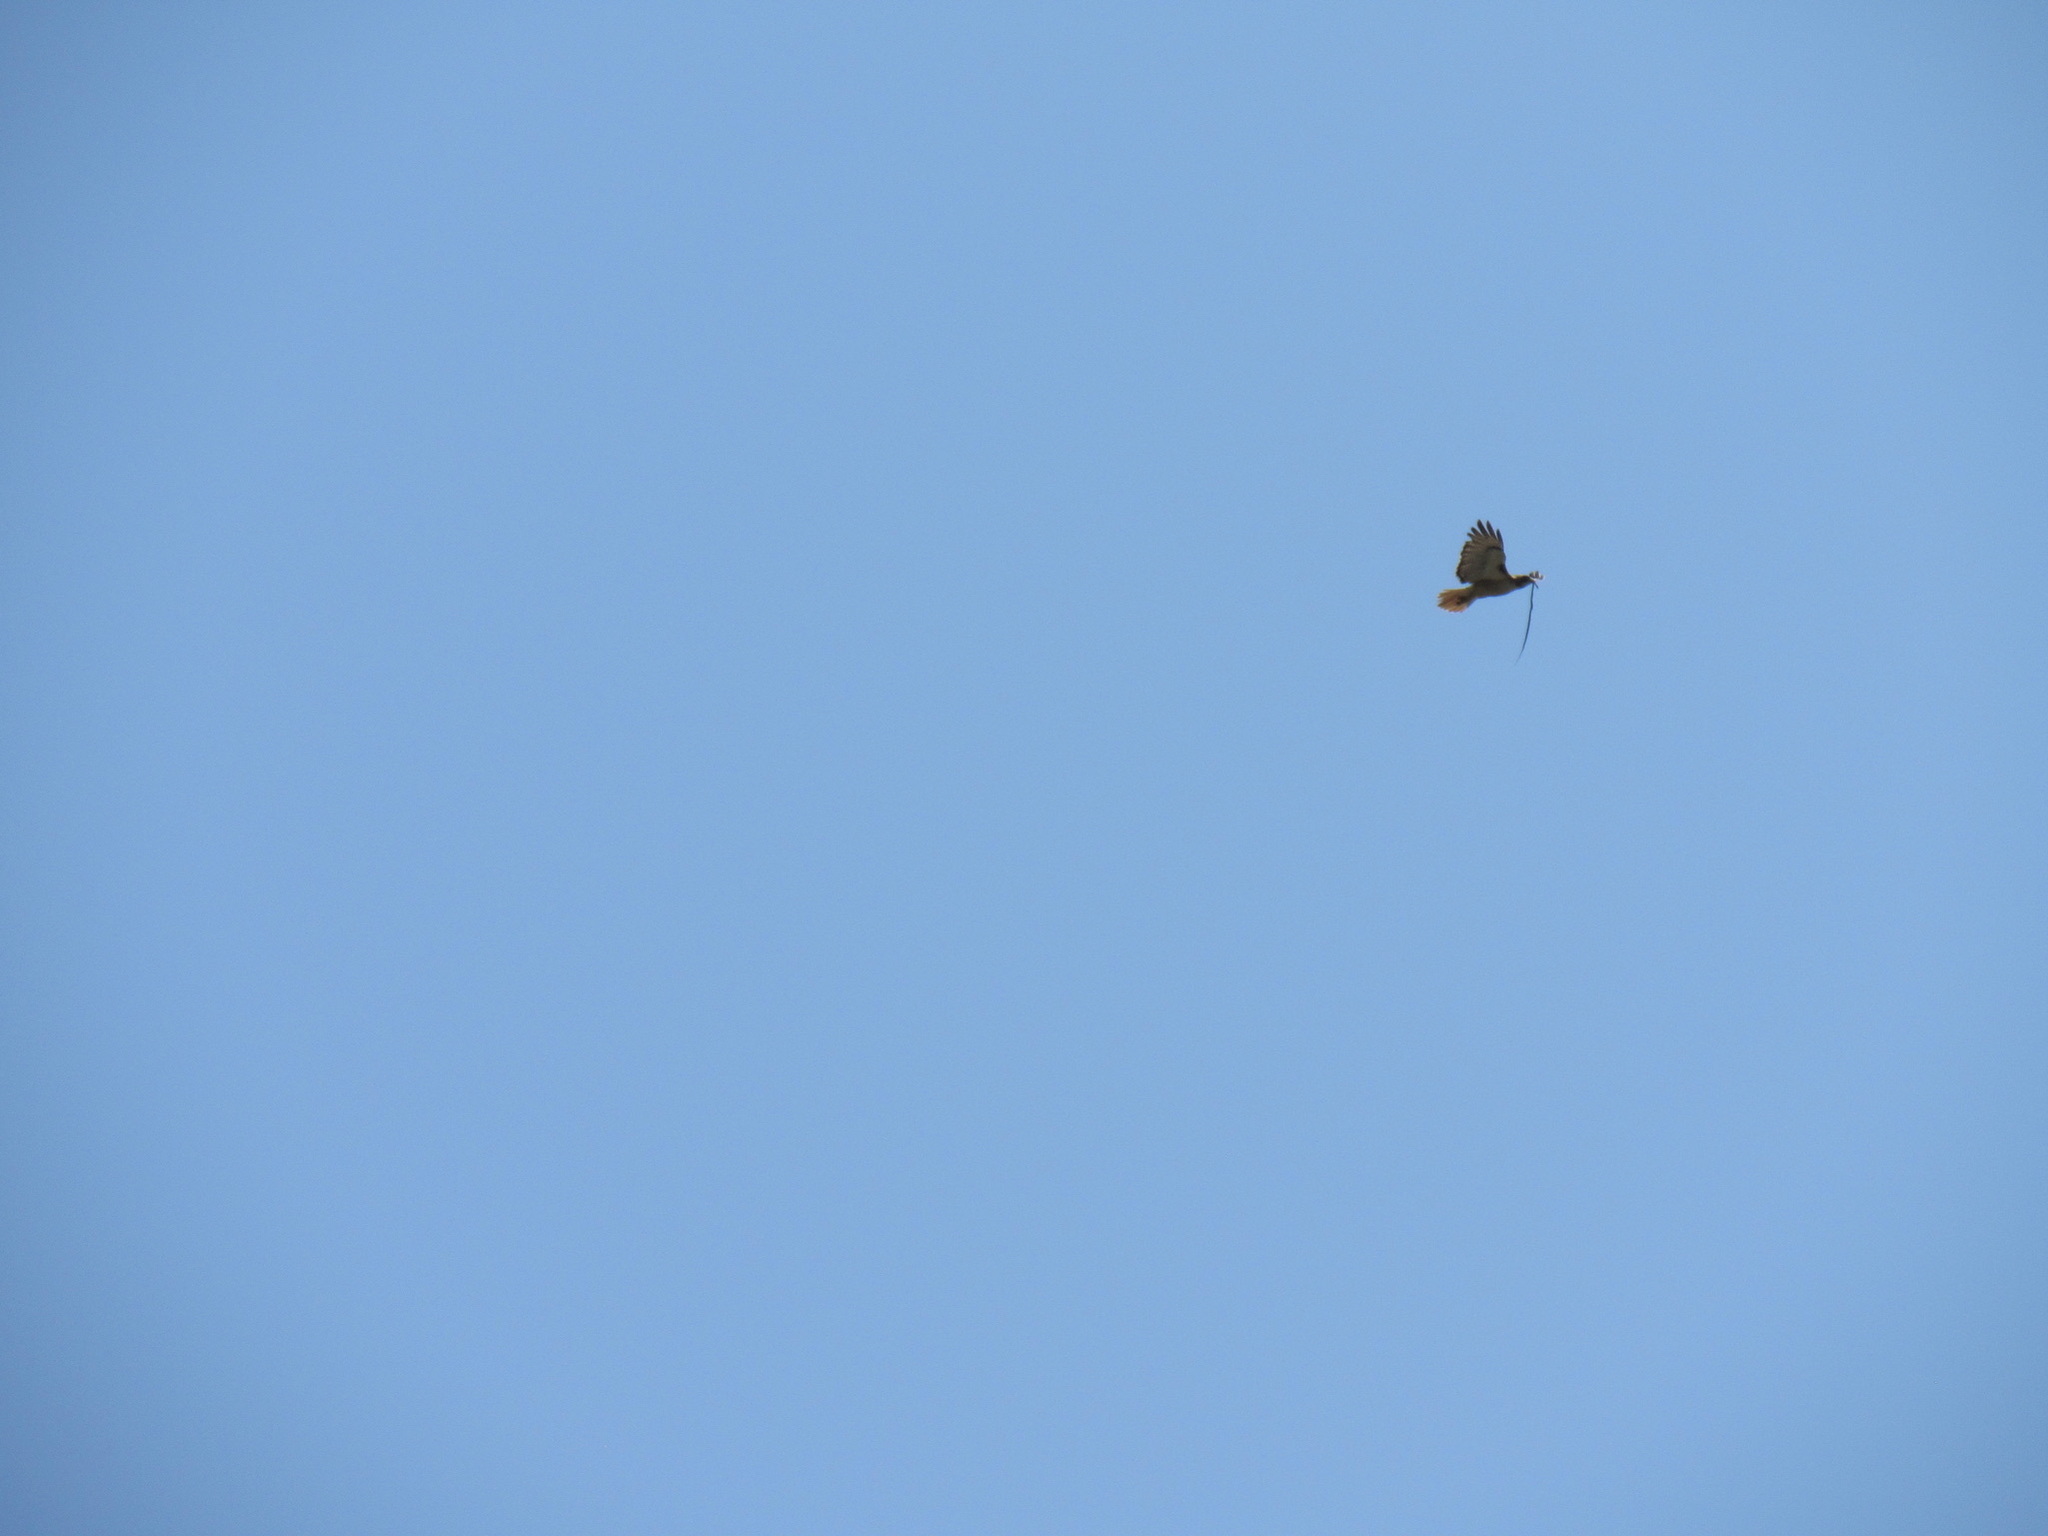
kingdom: Animalia
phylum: Chordata
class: Aves
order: Accipitriformes
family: Accipitridae
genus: Buteo
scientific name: Buteo jamaicensis
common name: Red-tailed hawk
